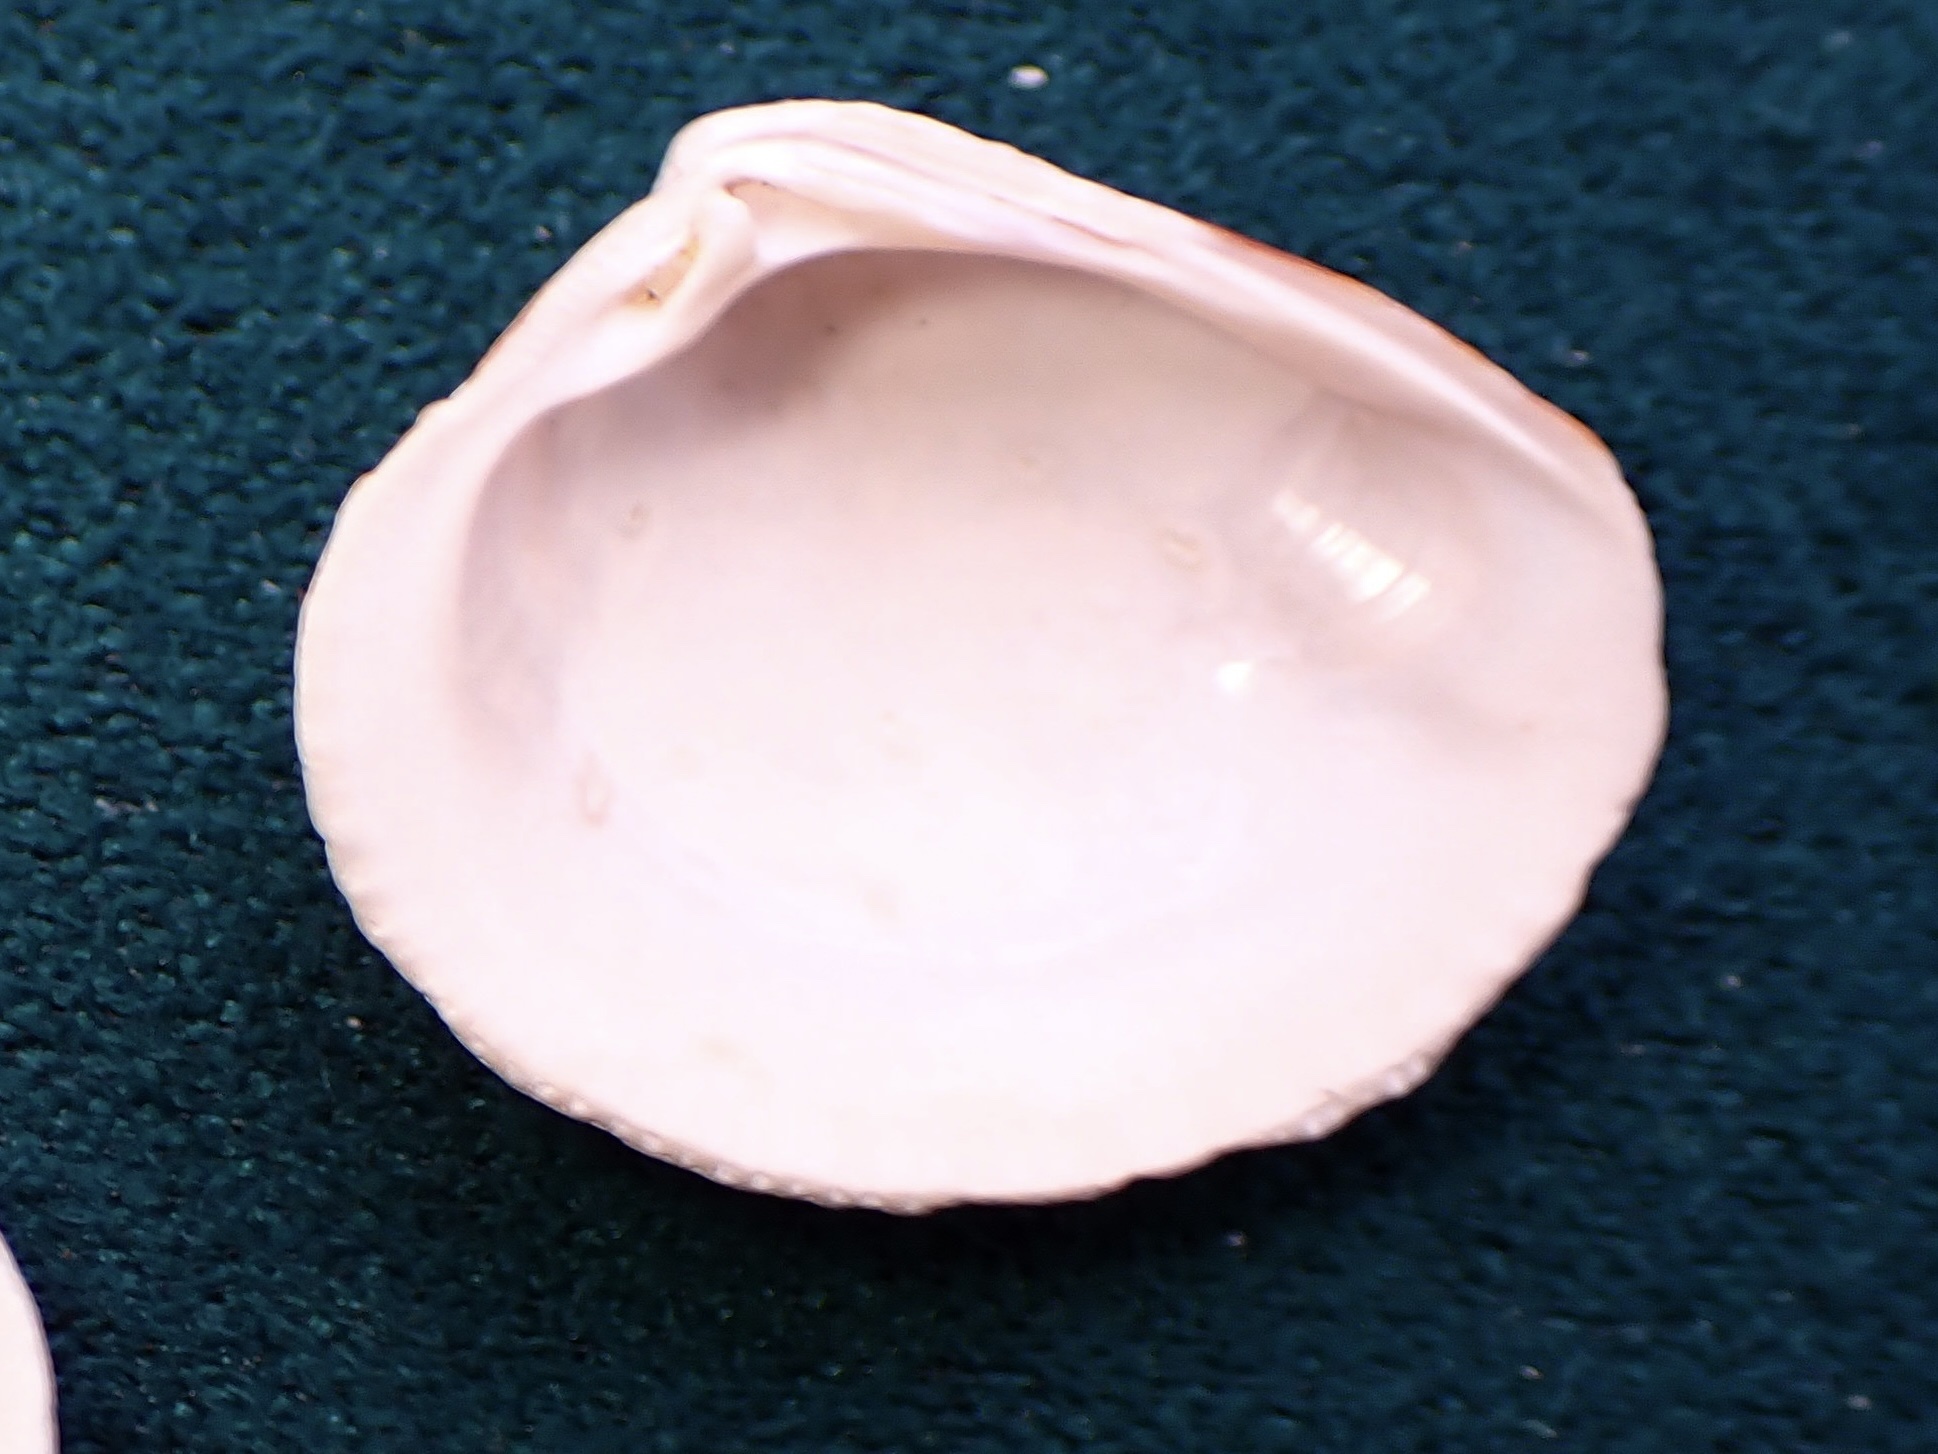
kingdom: Animalia
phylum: Mollusca
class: Bivalvia
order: Venerida
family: Veneridae
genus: Chione
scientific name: Chione californiensis
